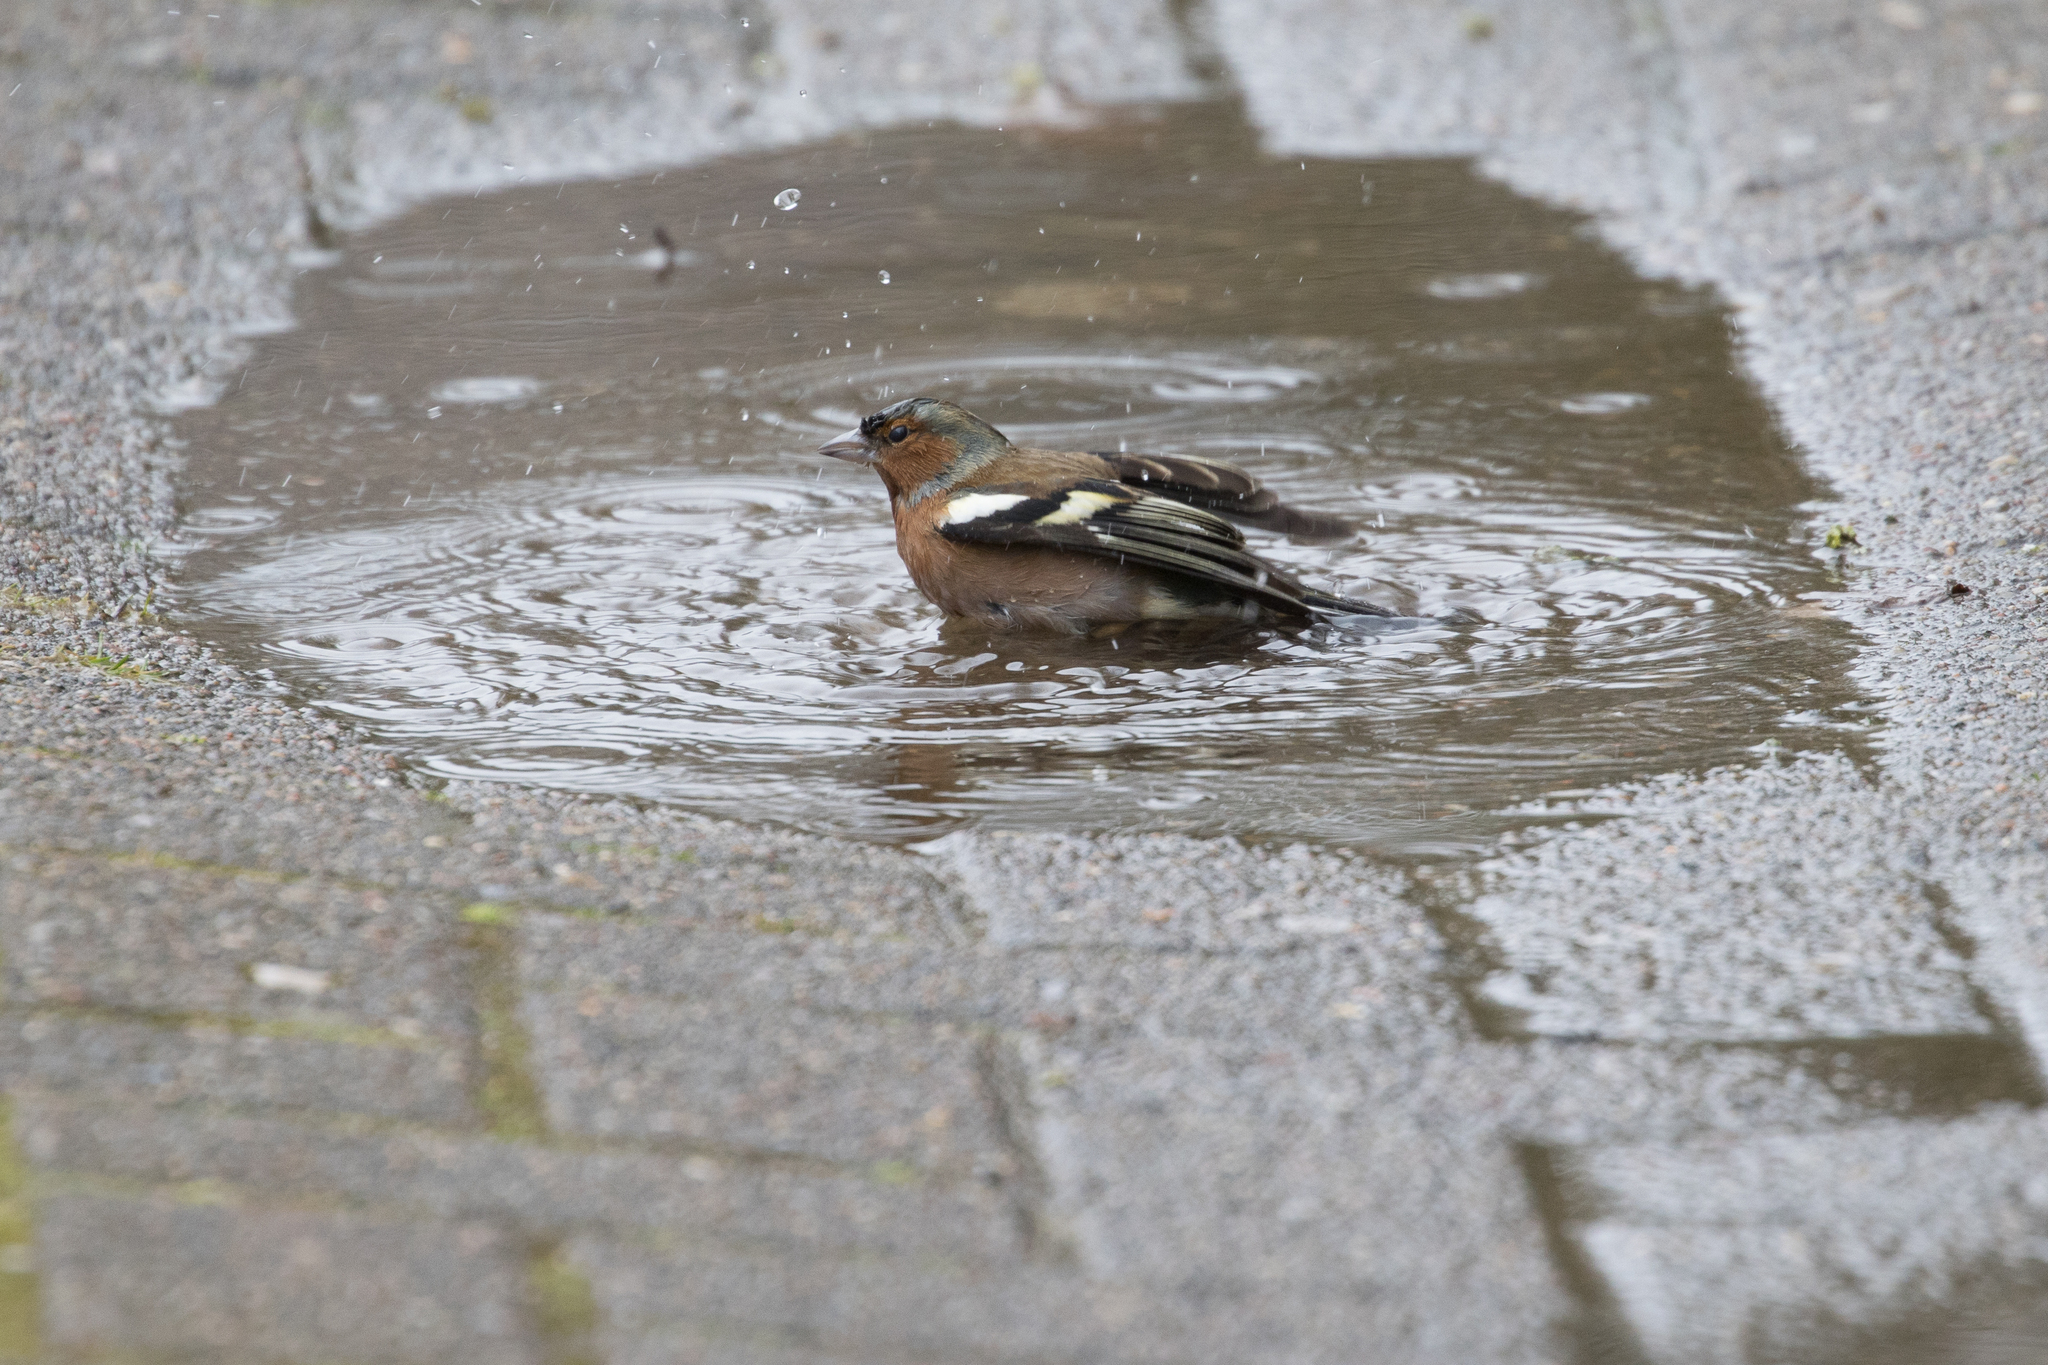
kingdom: Animalia
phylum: Chordata
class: Aves
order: Passeriformes
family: Fringillidae
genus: Fringilla
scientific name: Fringilla coelebs
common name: Common chaffinch
